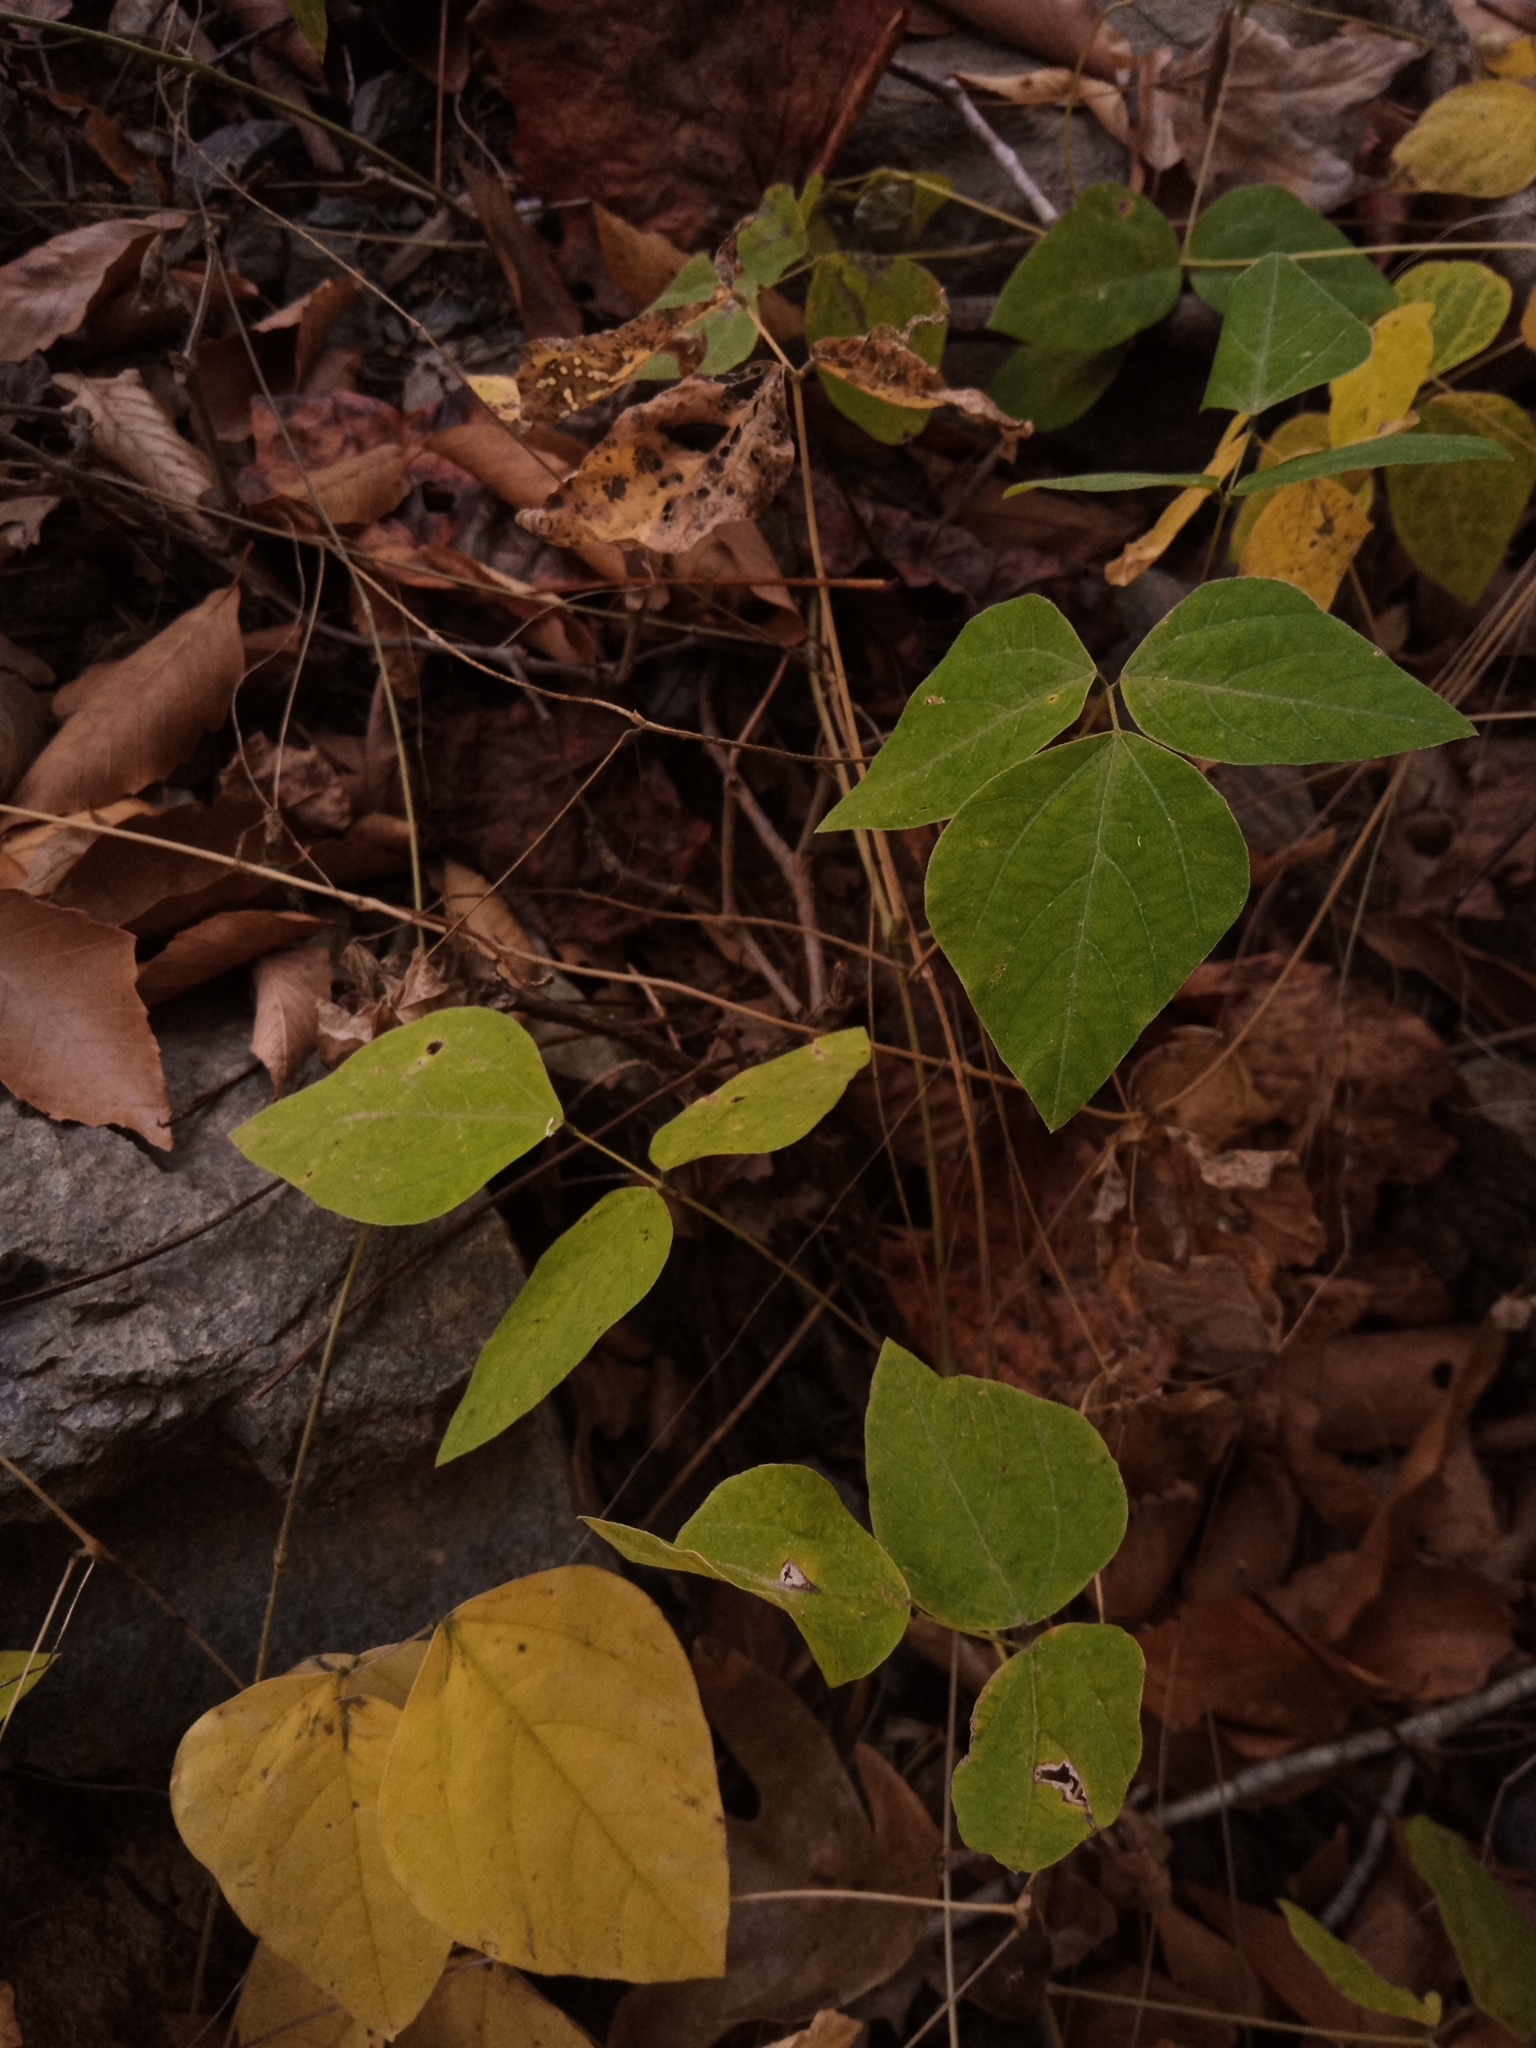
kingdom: Plantae
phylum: Tracheophyta
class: Magnoliopsida
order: Fabales
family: Fabaceae
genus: Amphicarpaea
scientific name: Amphicarpaea bracteata
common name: American hog peanut
